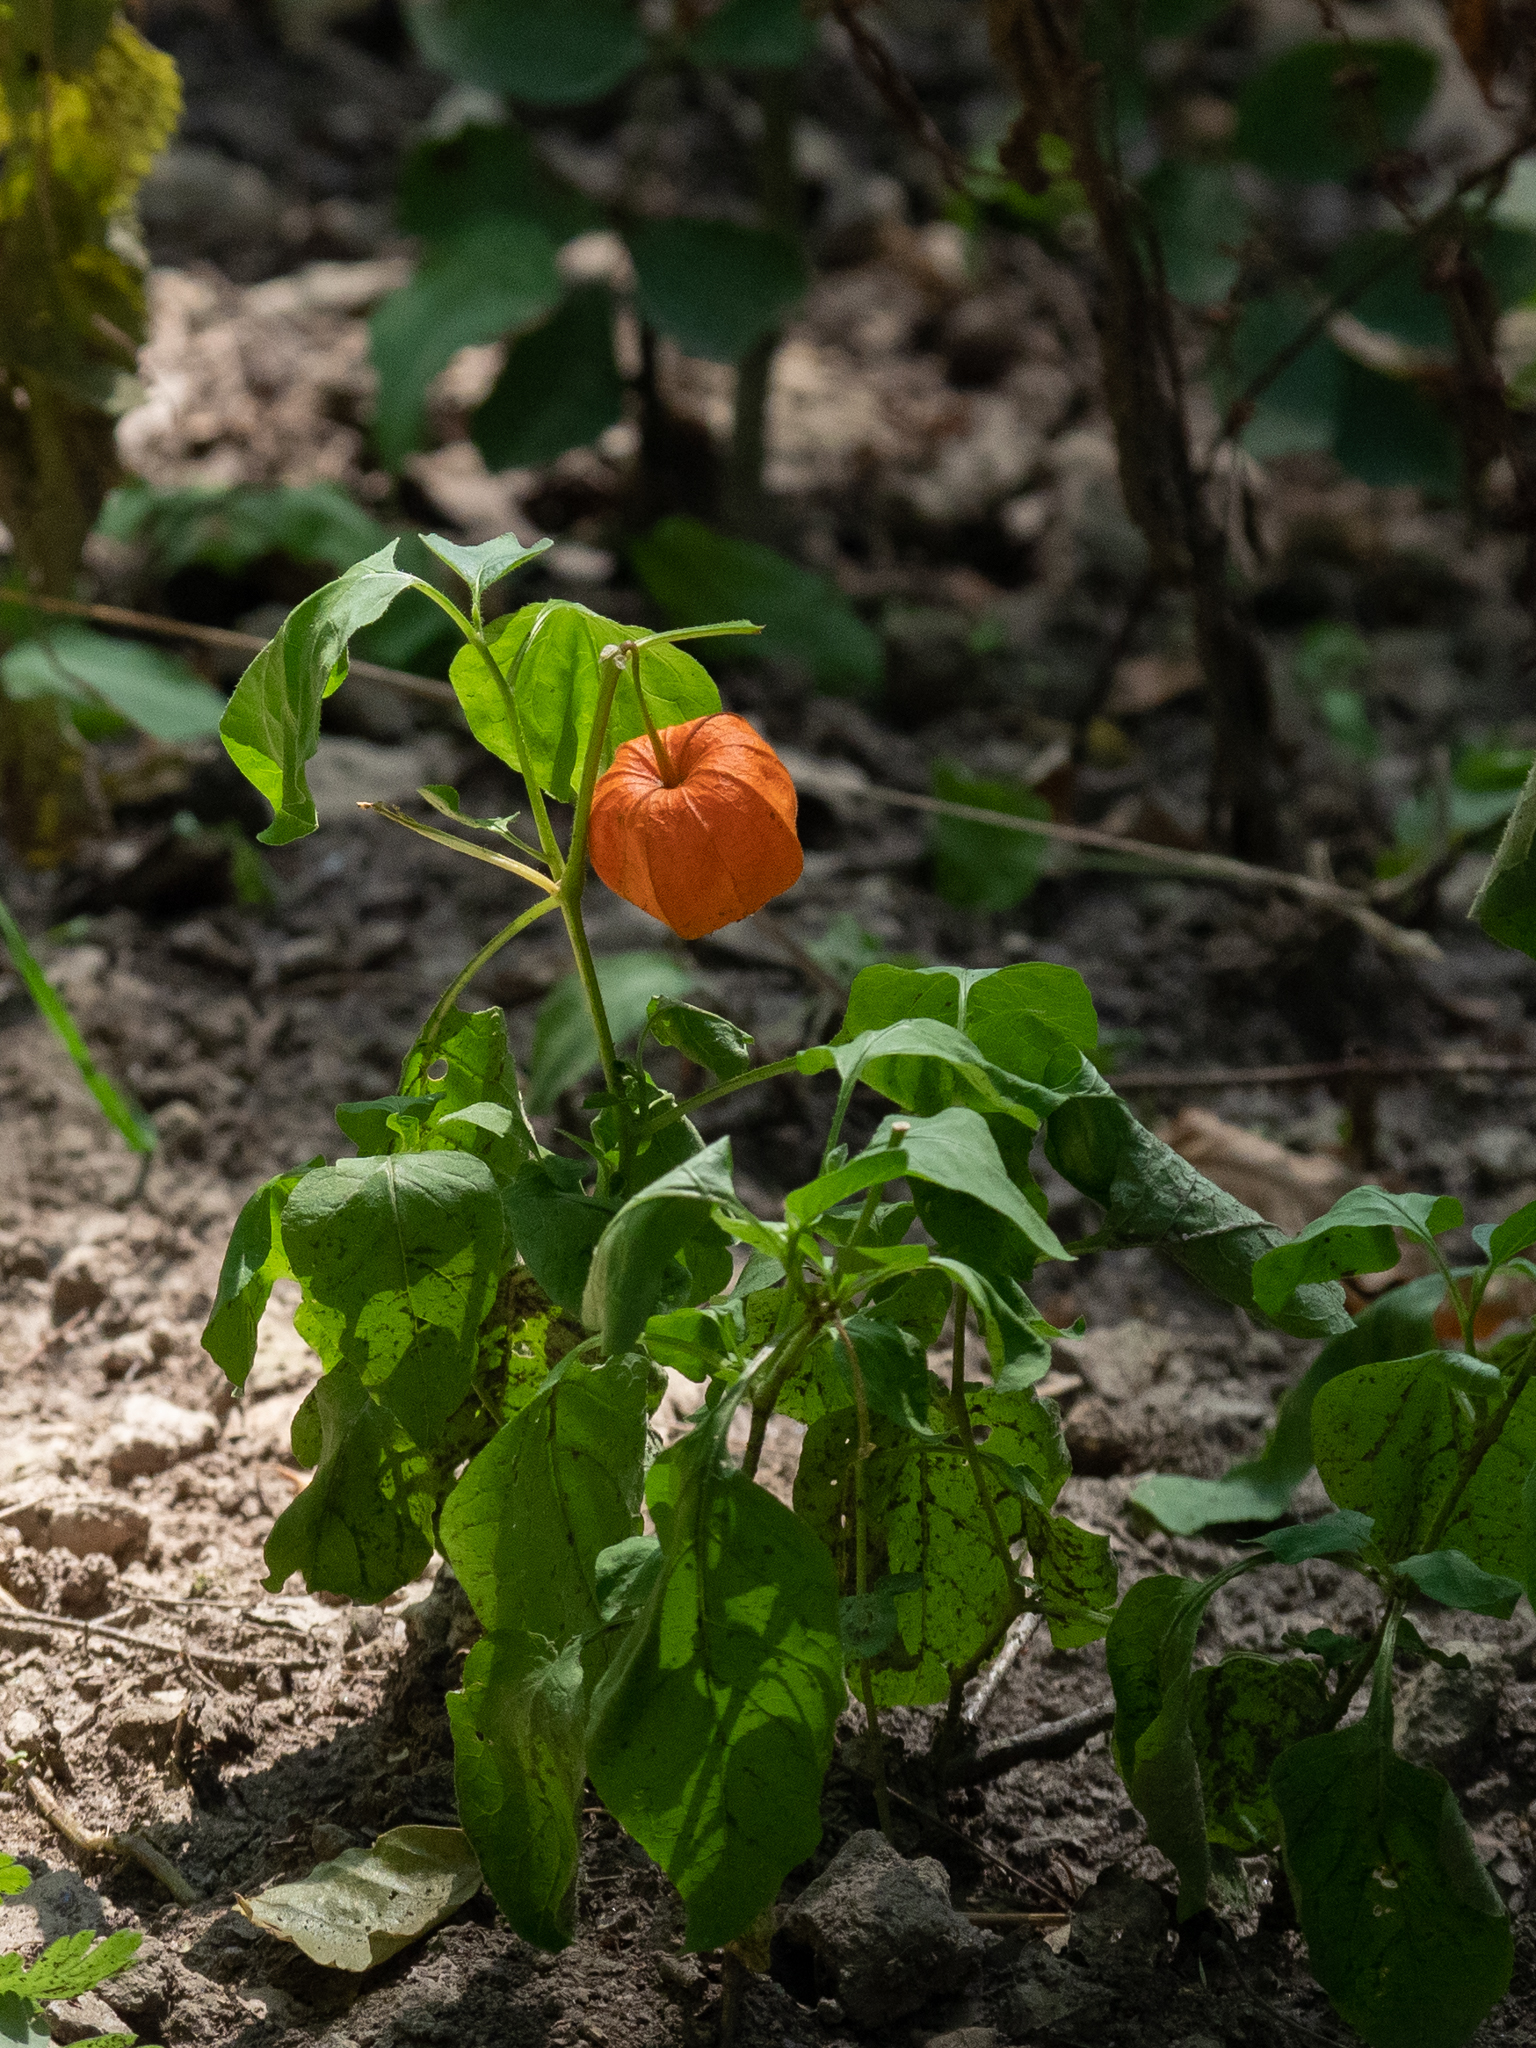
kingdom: Plantae
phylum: Tracheophyta
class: Magnoliopsida
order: Solanales
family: Solanaceae
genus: Alkekengi
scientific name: Alkekengi officinarum
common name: Japanese-lantern
